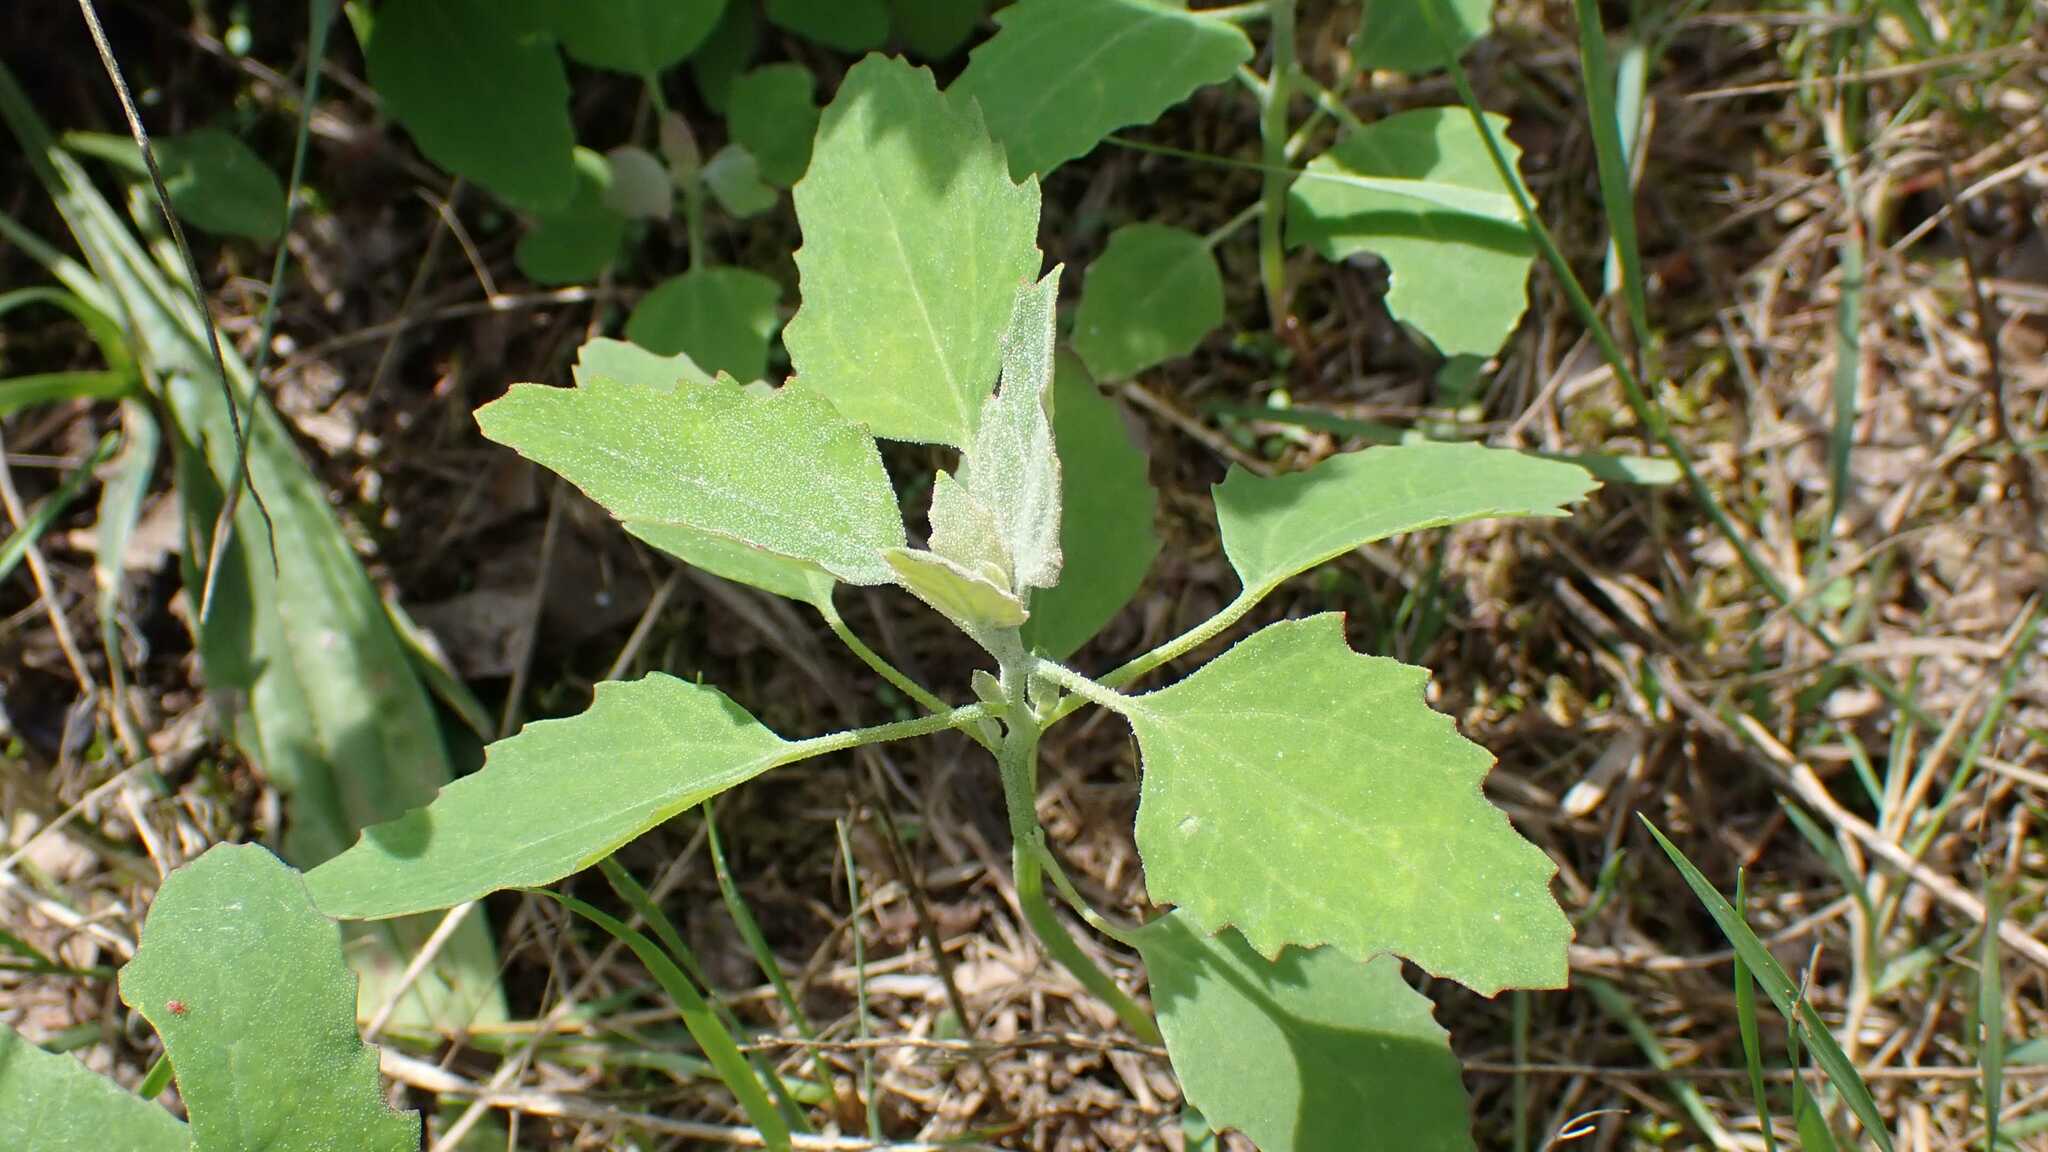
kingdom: Plantae
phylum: Tracheophyta
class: Magnoliopsida
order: Caryophyllales
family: Amaranthaceae
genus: Chenopodium
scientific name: Chenopodium album
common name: Fat-hen
